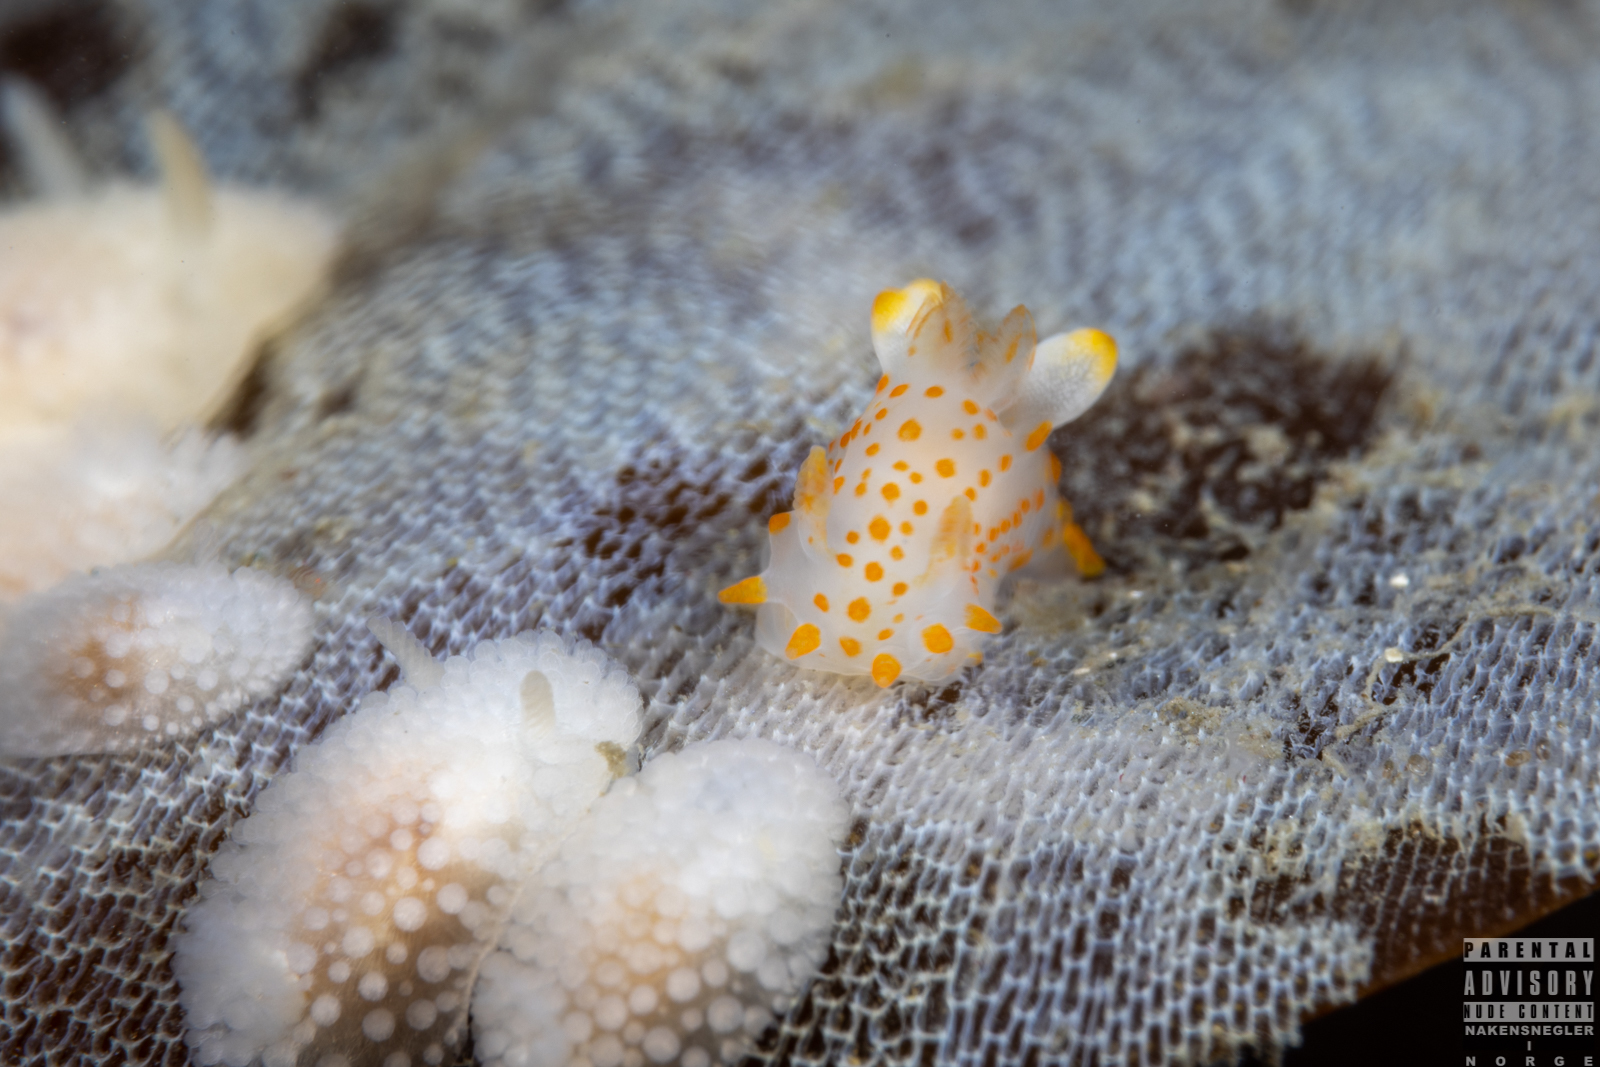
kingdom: Animalia
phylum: Mollusca
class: Gastropoda
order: Nudibranchia
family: Onchidorididae
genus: Onchidoris
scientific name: Onchidoris muricata
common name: Rough doris
